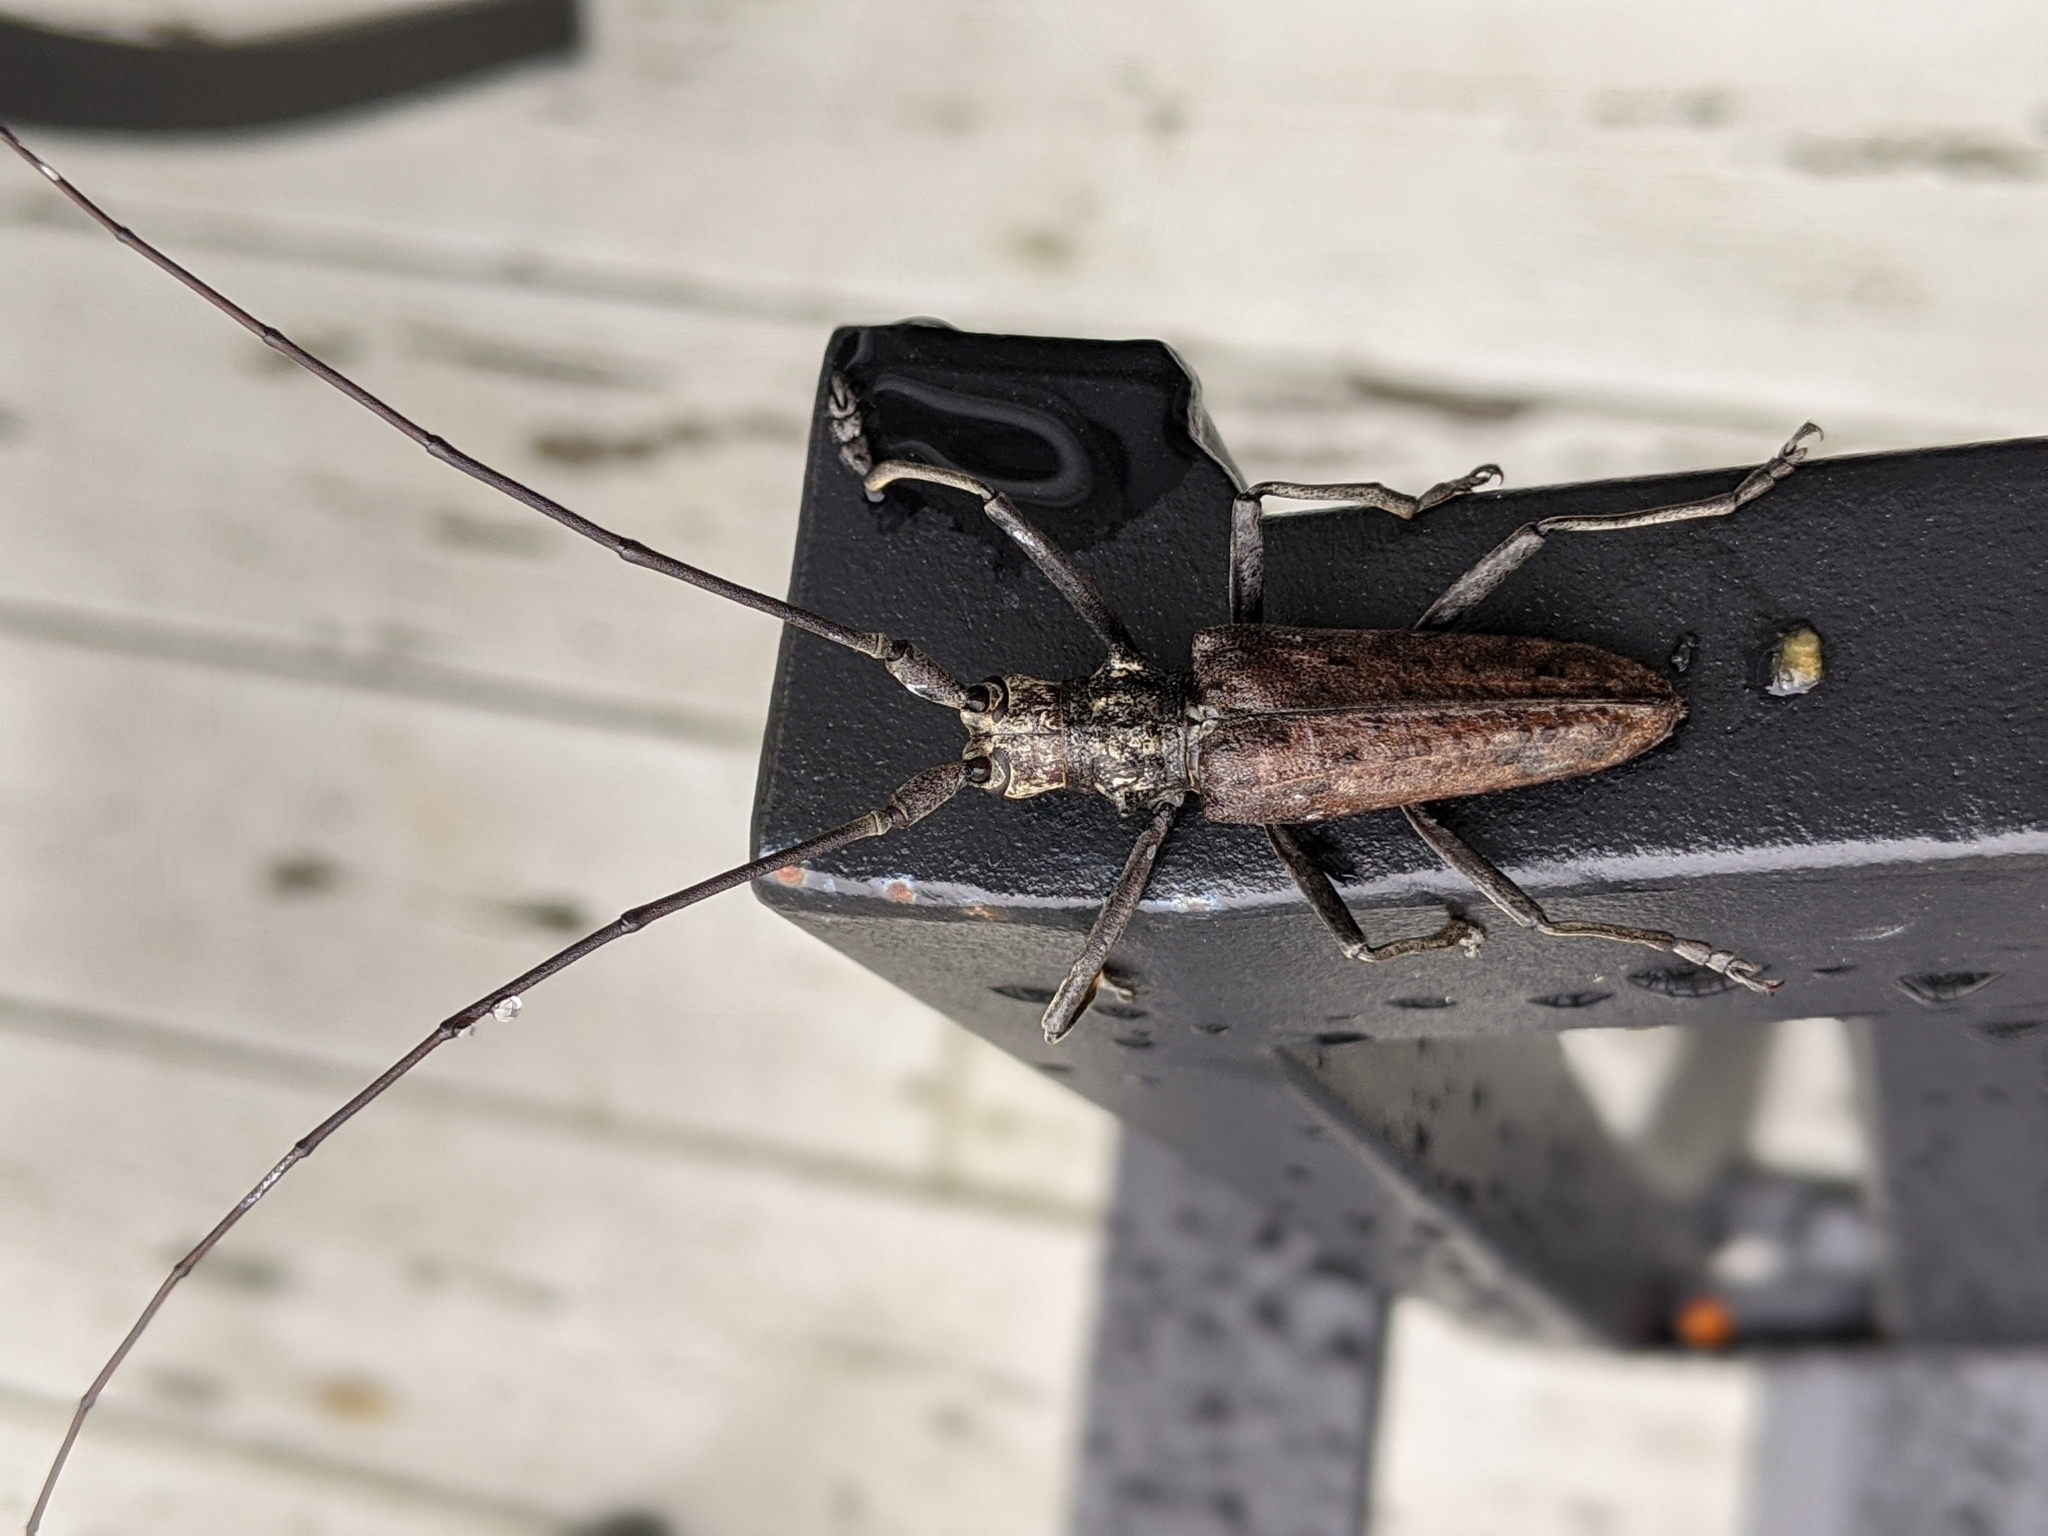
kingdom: Animalia
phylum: Arthropoda
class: Insecta
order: Coleoptera
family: Cerambycidae
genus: Monochamus
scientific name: Monochamus notatus
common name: Northeastern pine sawyer beetle
